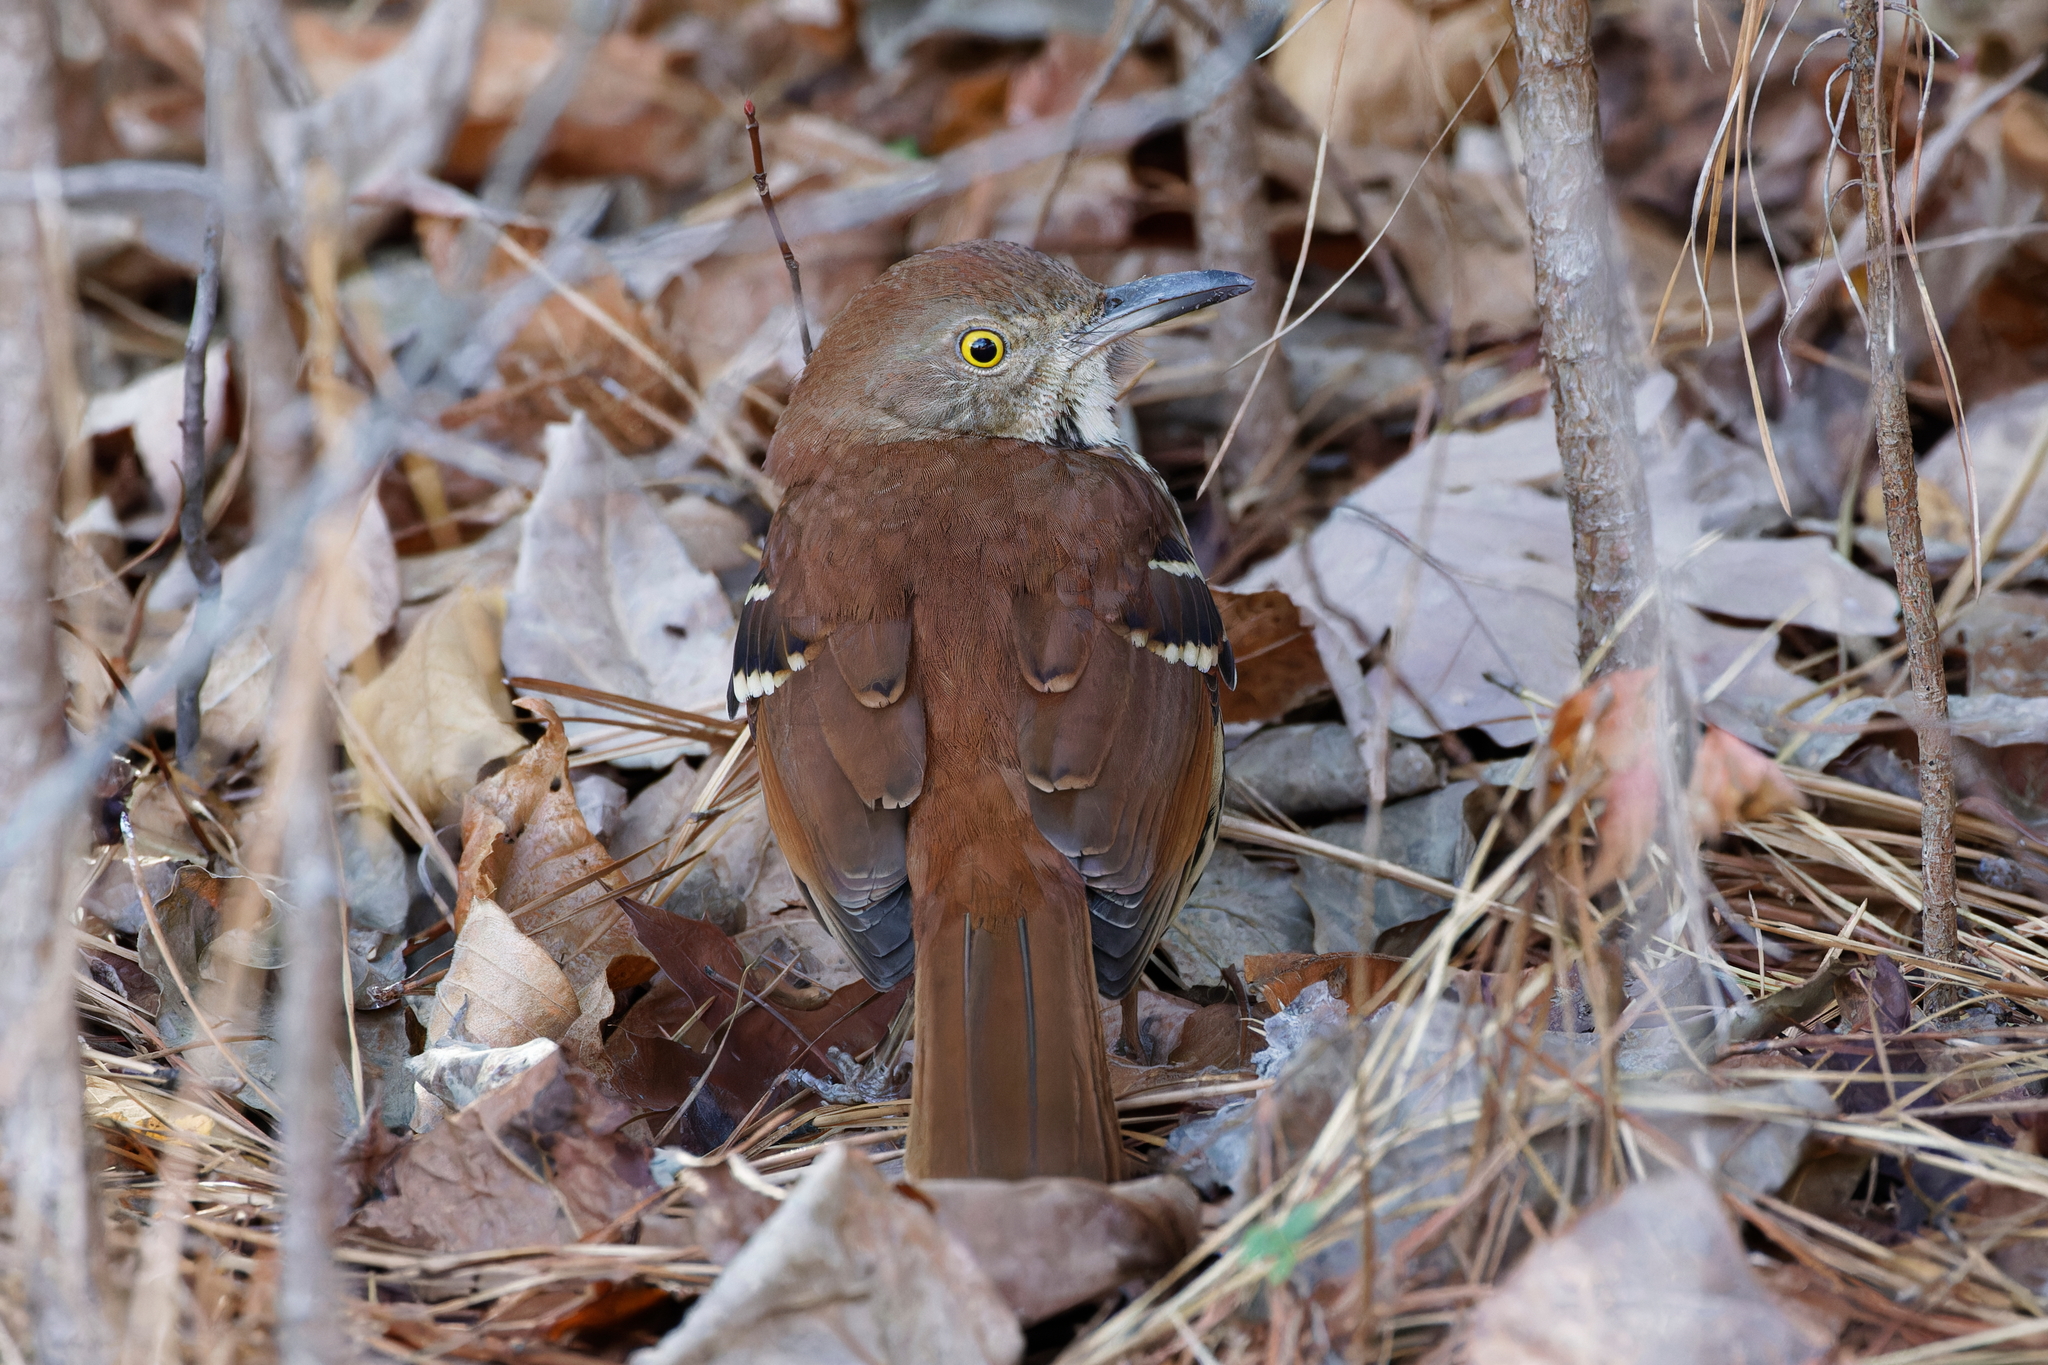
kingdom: Animalia
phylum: Chordata
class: Aves
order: Passeriformes
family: Mimidae
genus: Toxostoma
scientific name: Toxostoma rufum
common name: Brown thrasher
